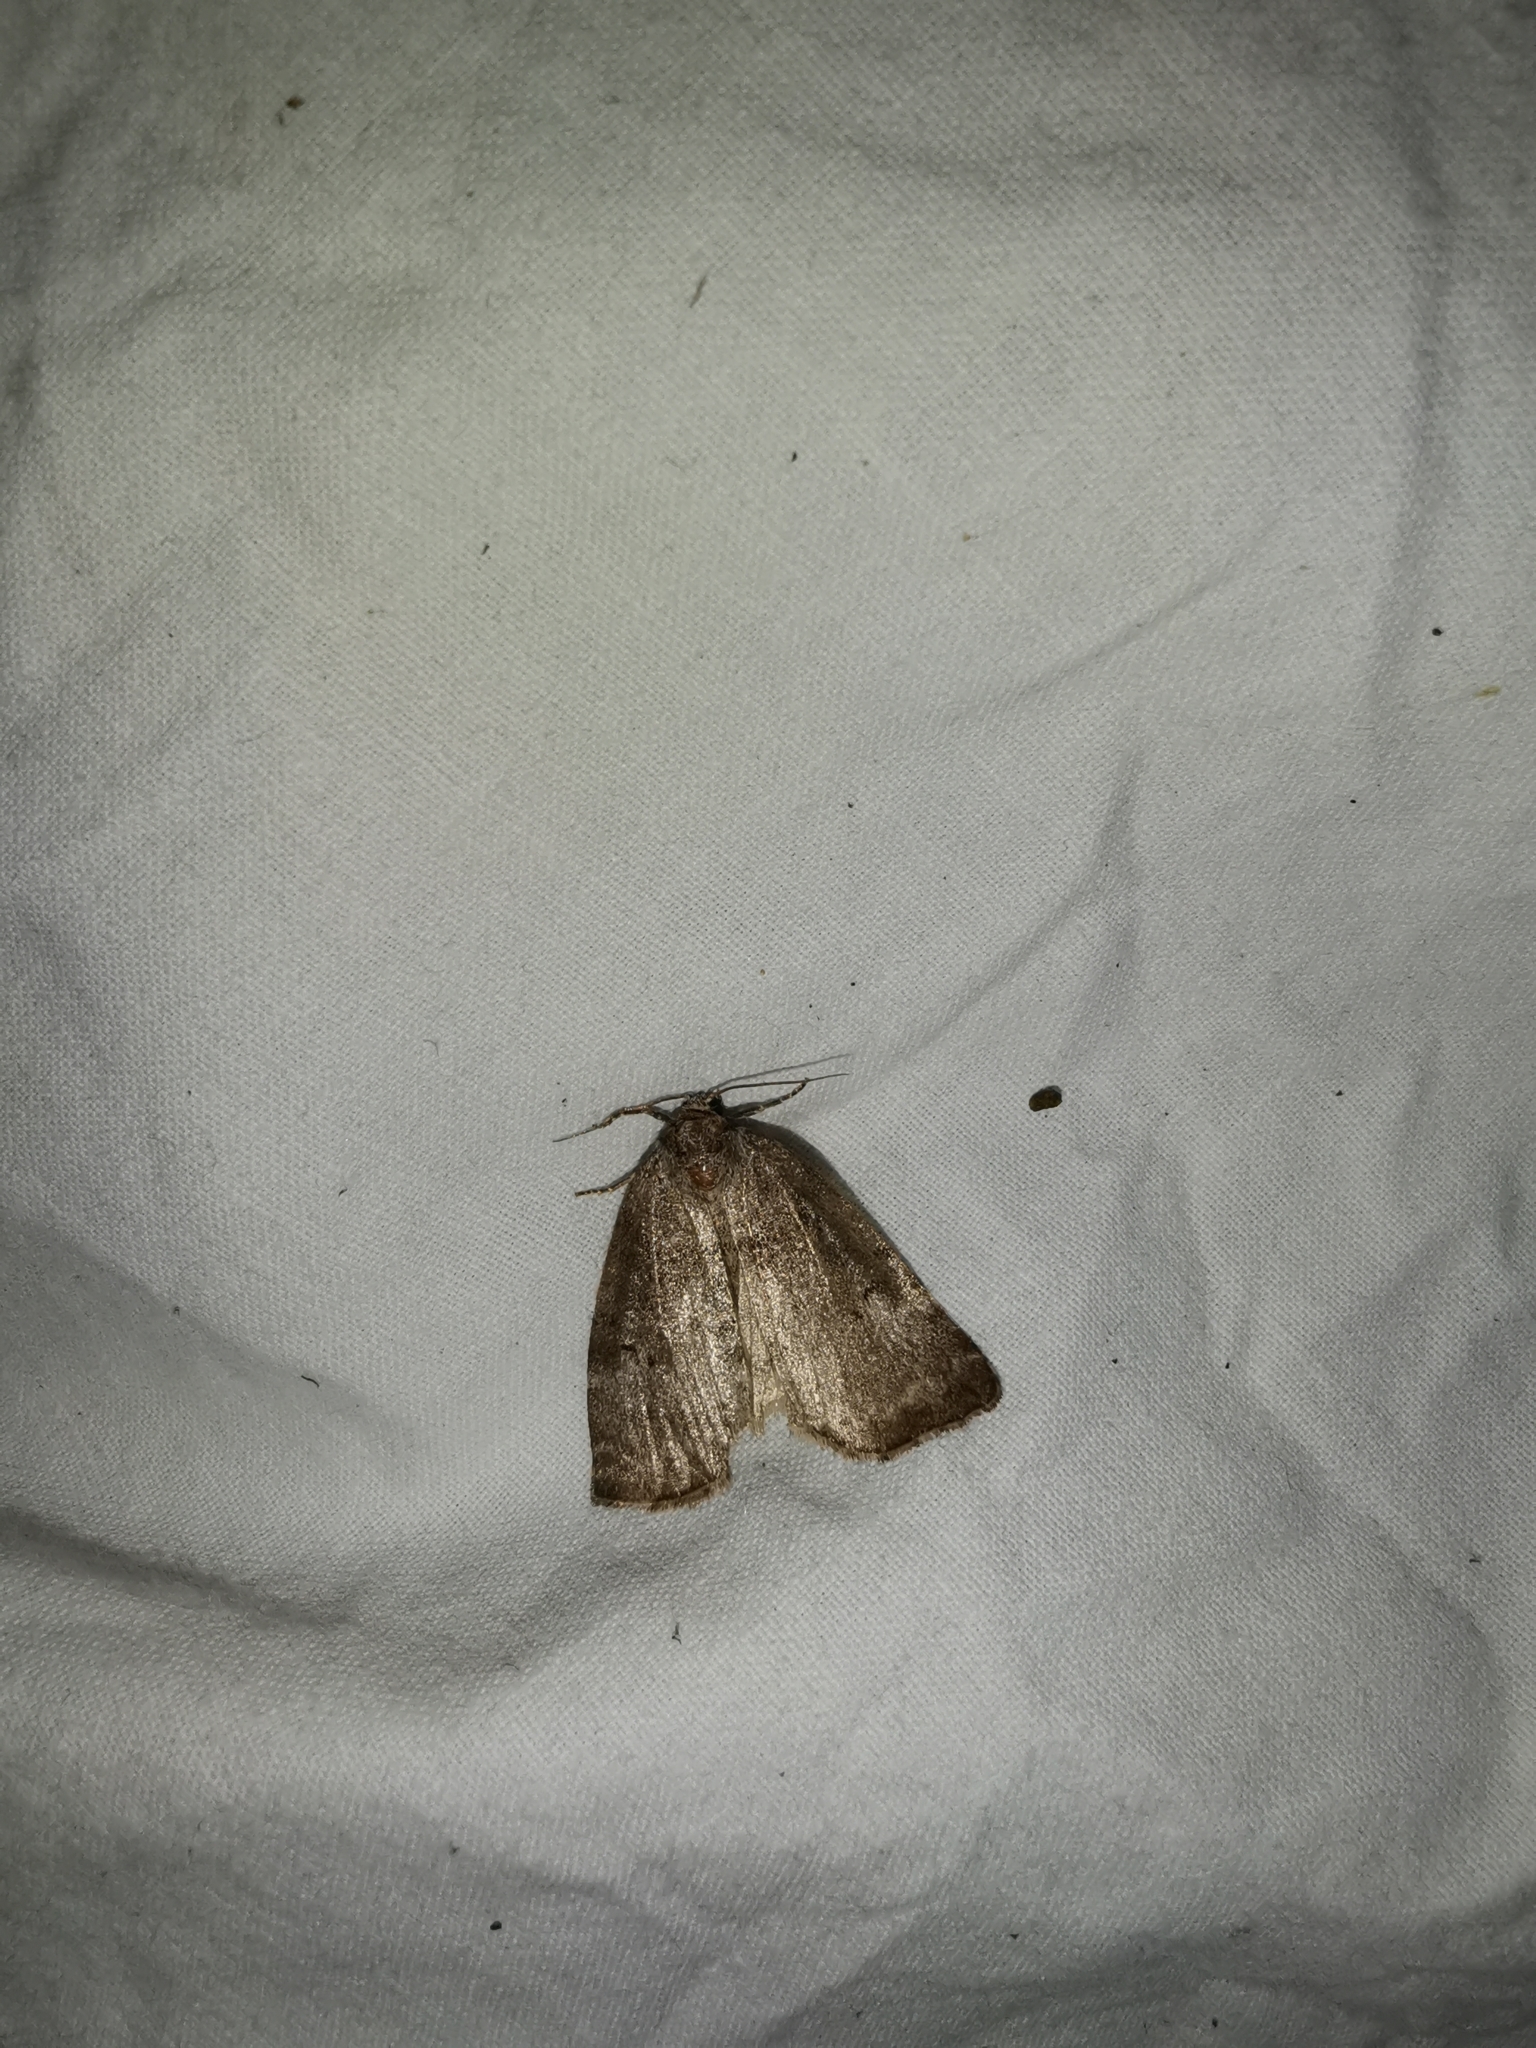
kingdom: Animalia
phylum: Arthropoda
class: Insecta
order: Lepidoptera
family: Drepanidae
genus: Ochropacha
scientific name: Ochropacha duplaris
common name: Common lutestring
